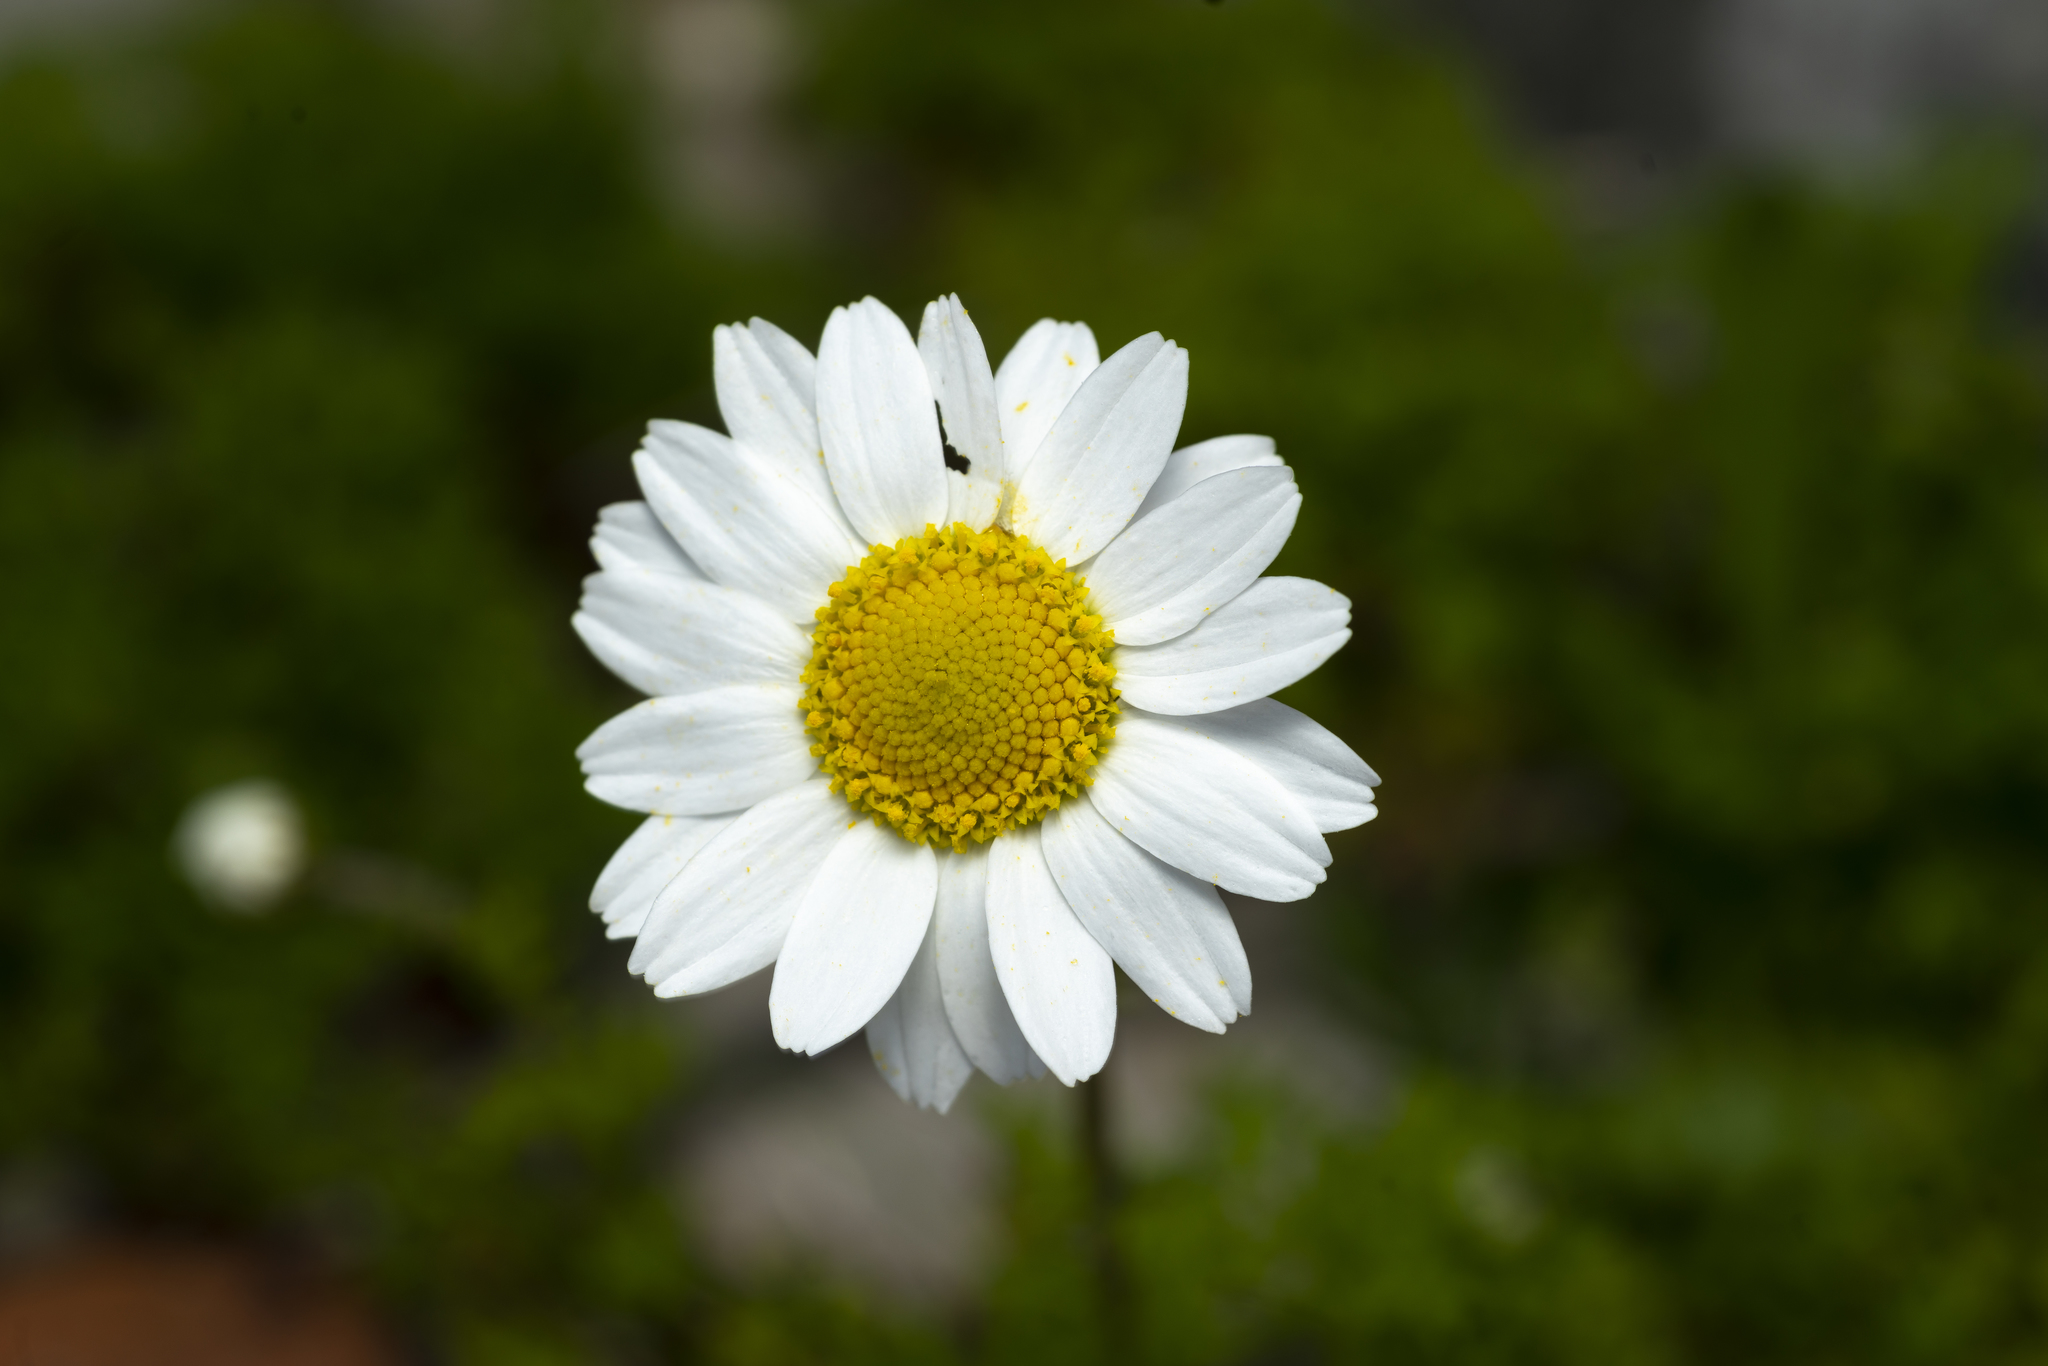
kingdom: Plantae
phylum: Tracheophyta
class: Magnoliopsida
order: Asterales
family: Asteraceae
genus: Anthemis
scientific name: Anthemis chia
